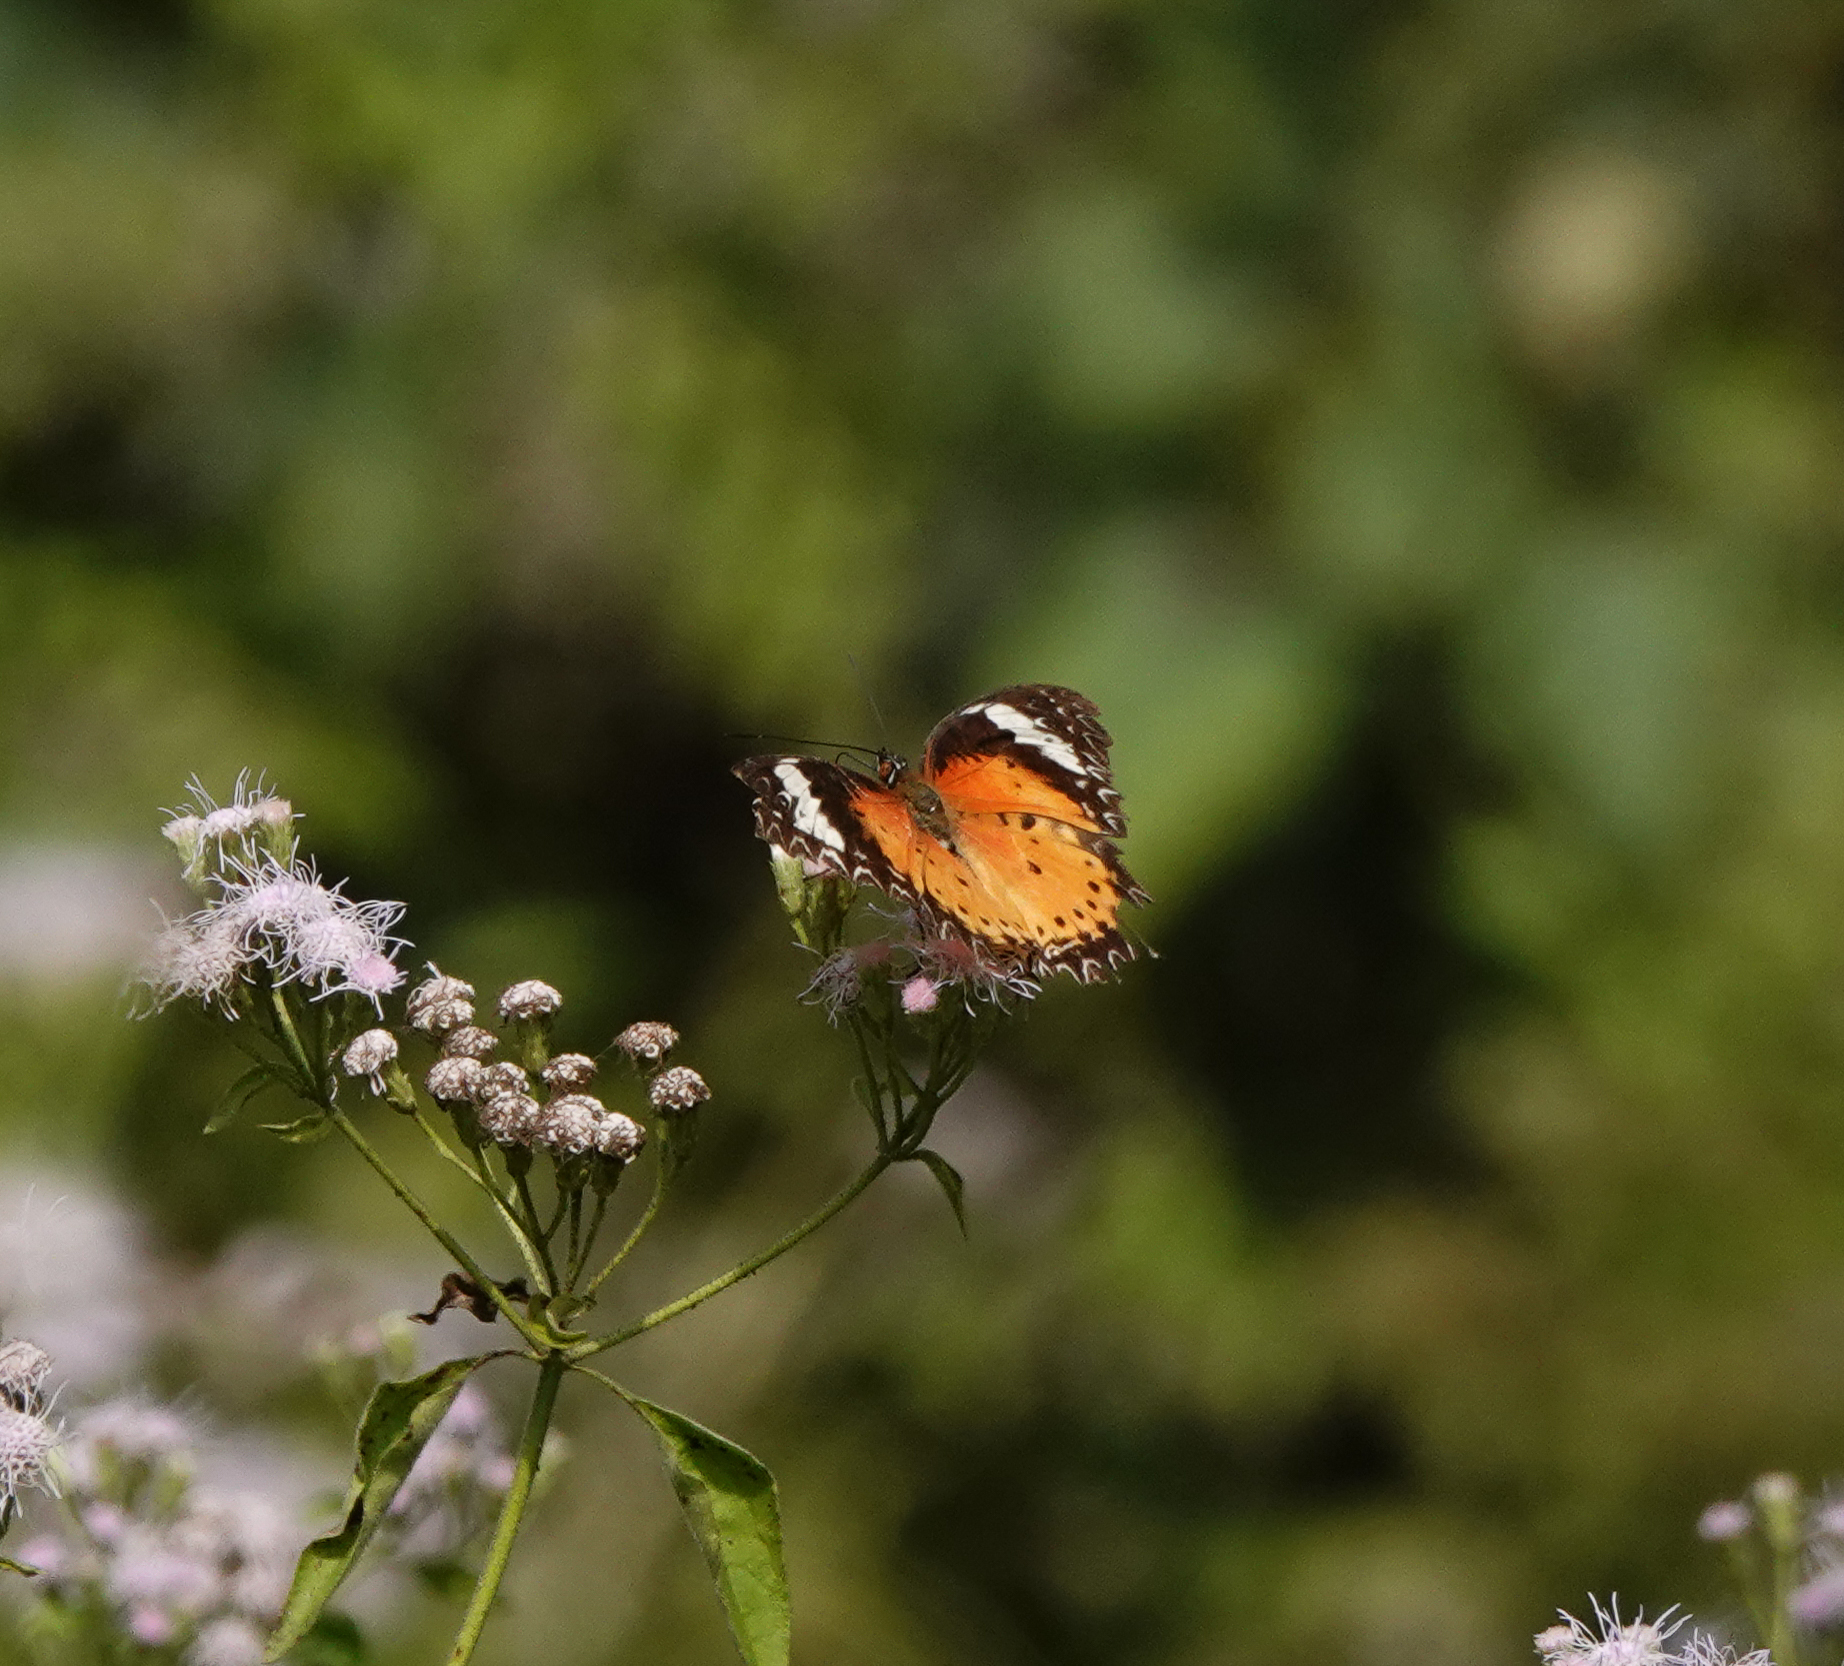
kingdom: Animalia
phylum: Arthropoda
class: Insecta
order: Lepidoptera
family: Nymphalidae
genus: Cethosia
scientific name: Cethosia cyane
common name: Leopard lacewing butterfly
